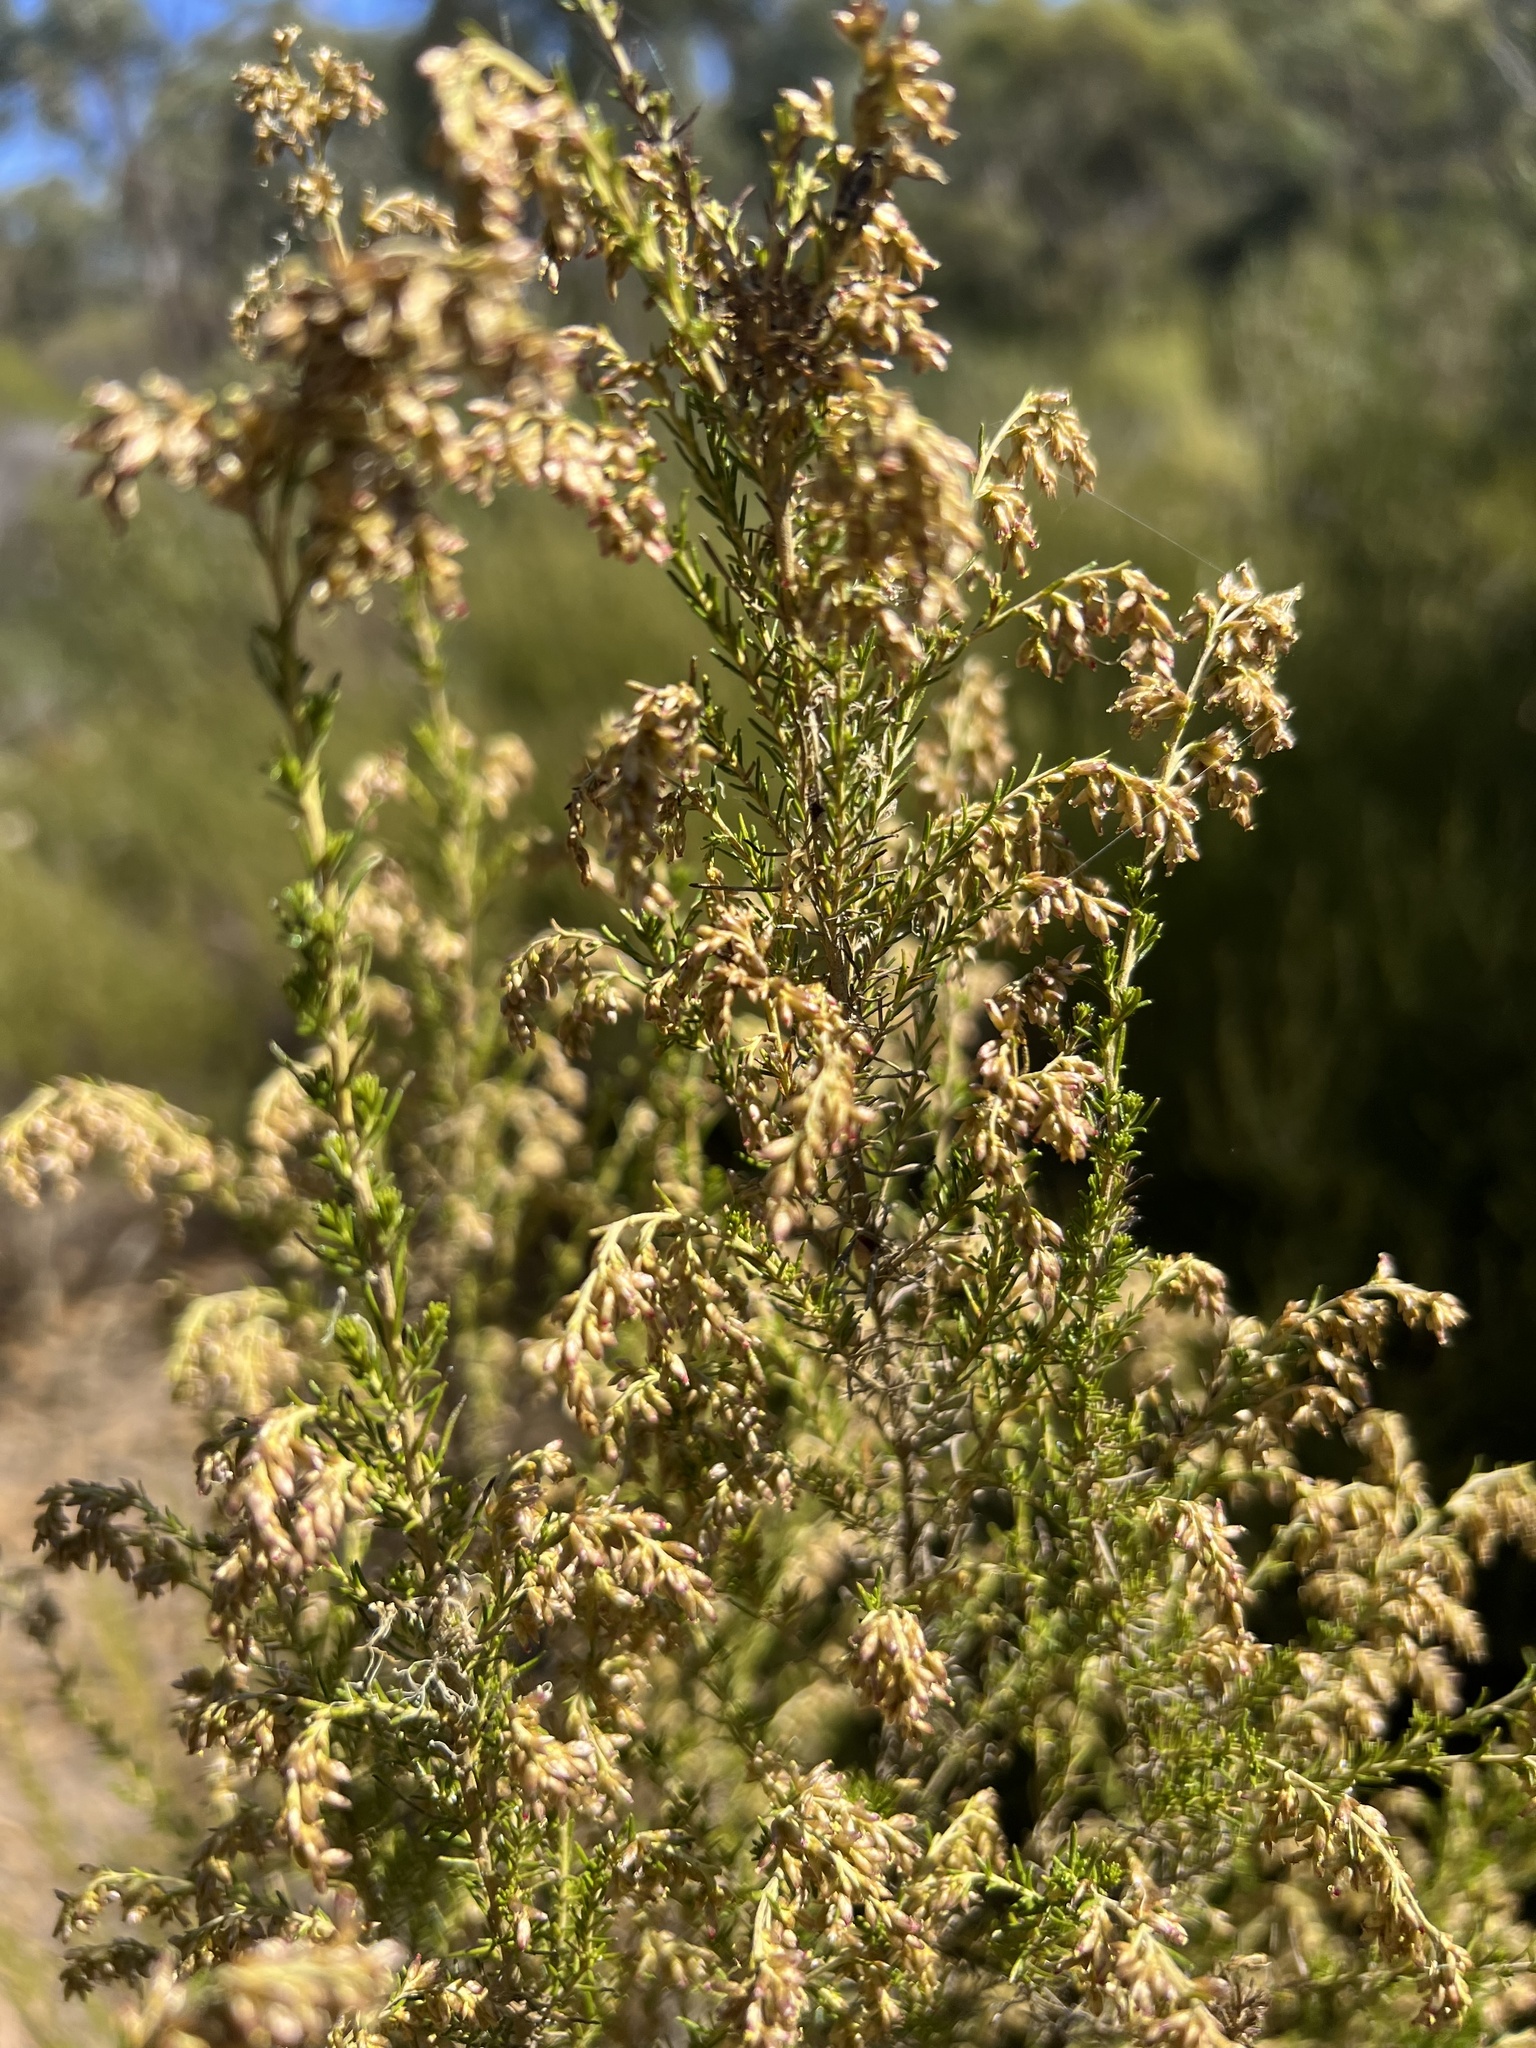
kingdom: Plantae
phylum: Tracheophyta
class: Magnoliopsida
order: Asterales
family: Asteraceae
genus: Cassinia
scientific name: Cassinia sifton
